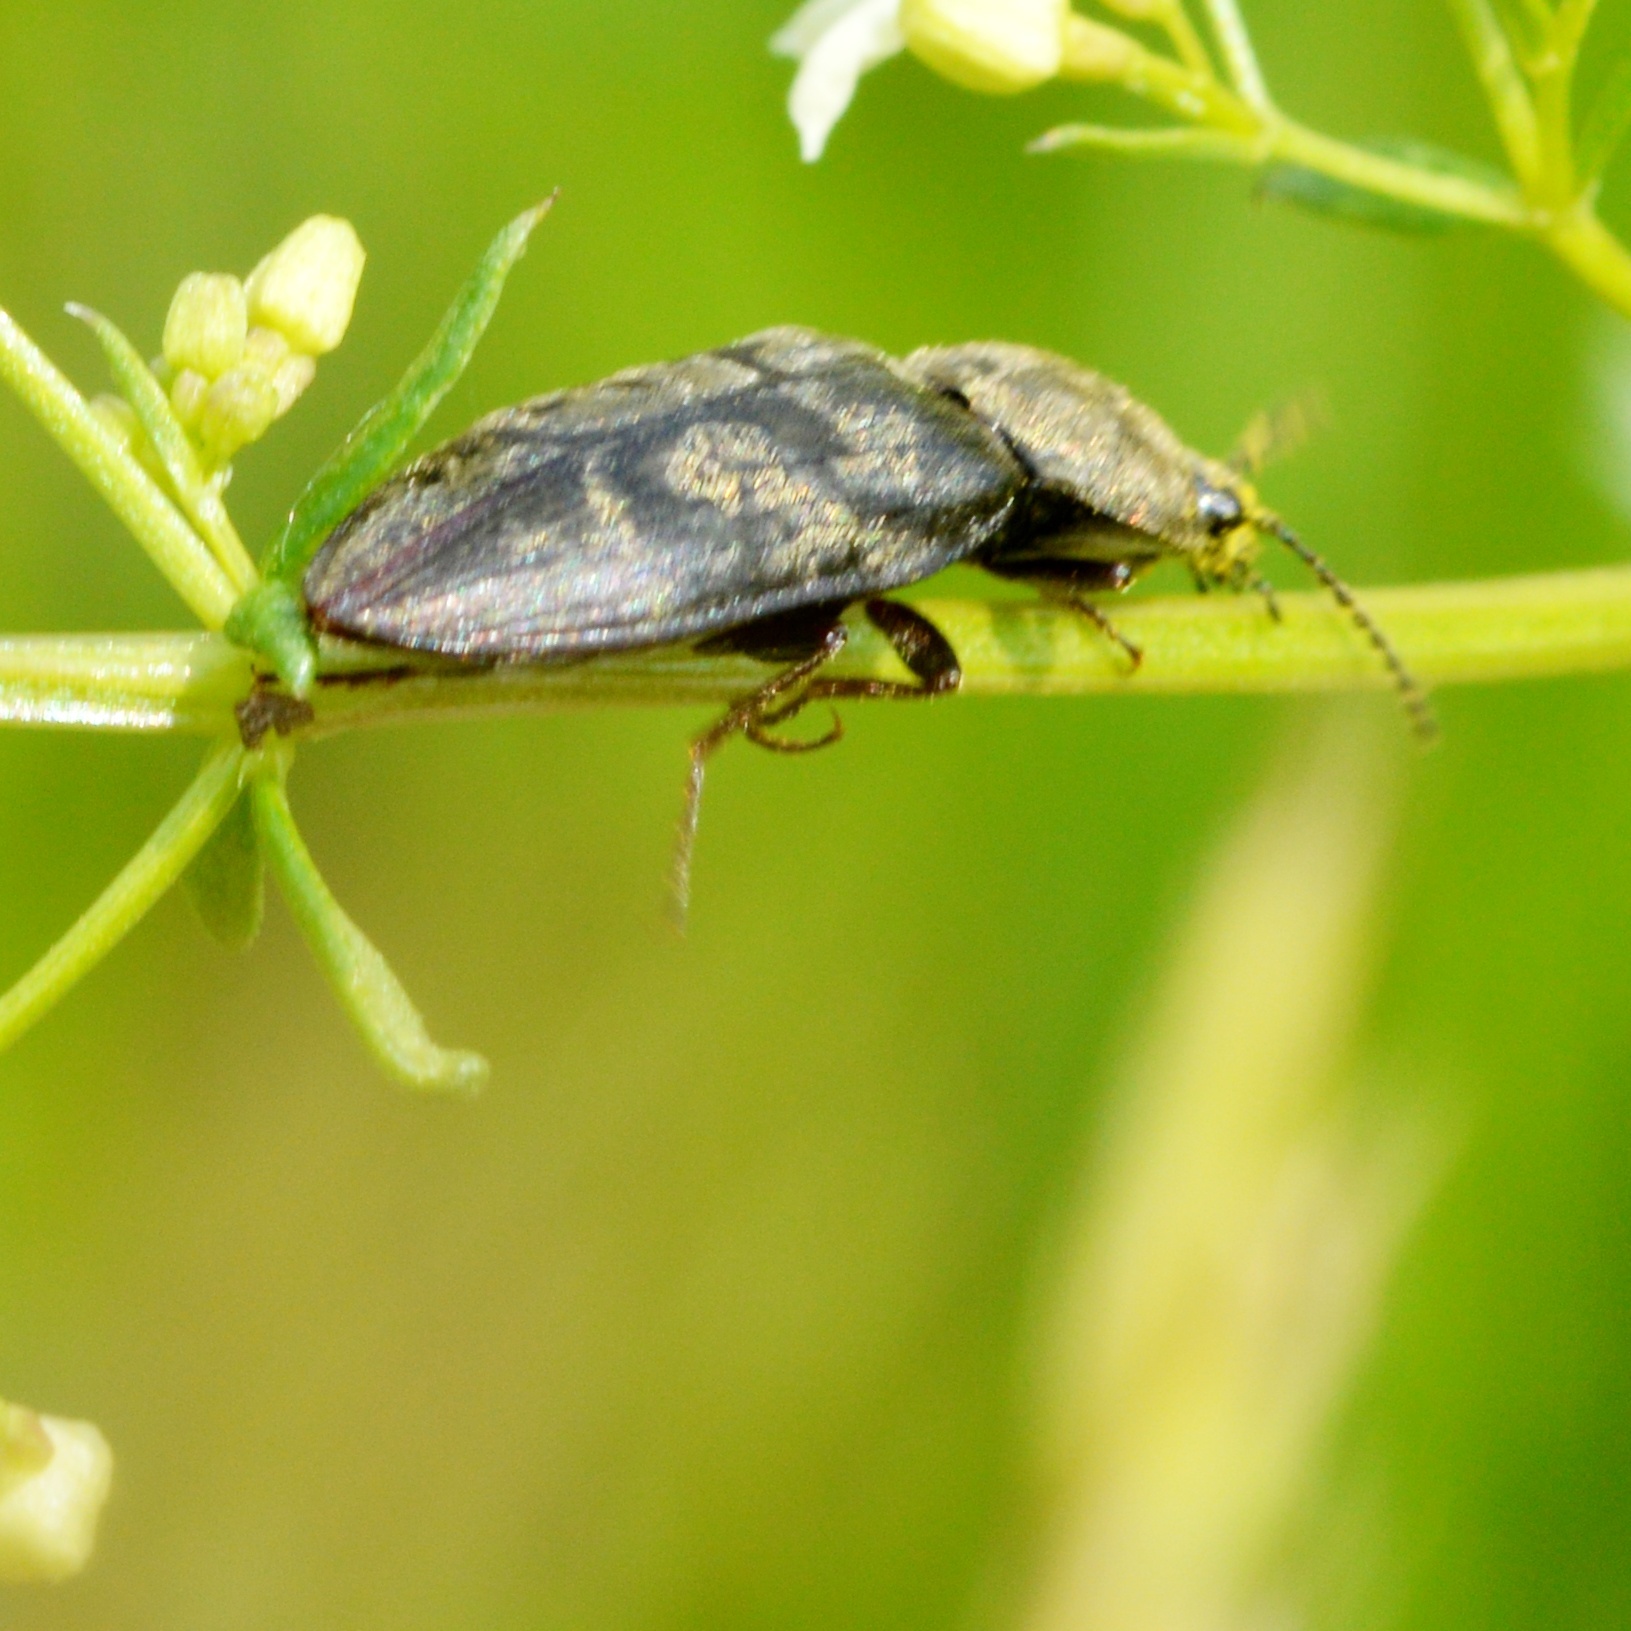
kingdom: Animalia
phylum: Arthropoda
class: Insecta
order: Coleoptera
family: Elateridae
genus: Prosternon
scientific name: Prosternon tessellatum
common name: Chequered click beetle
